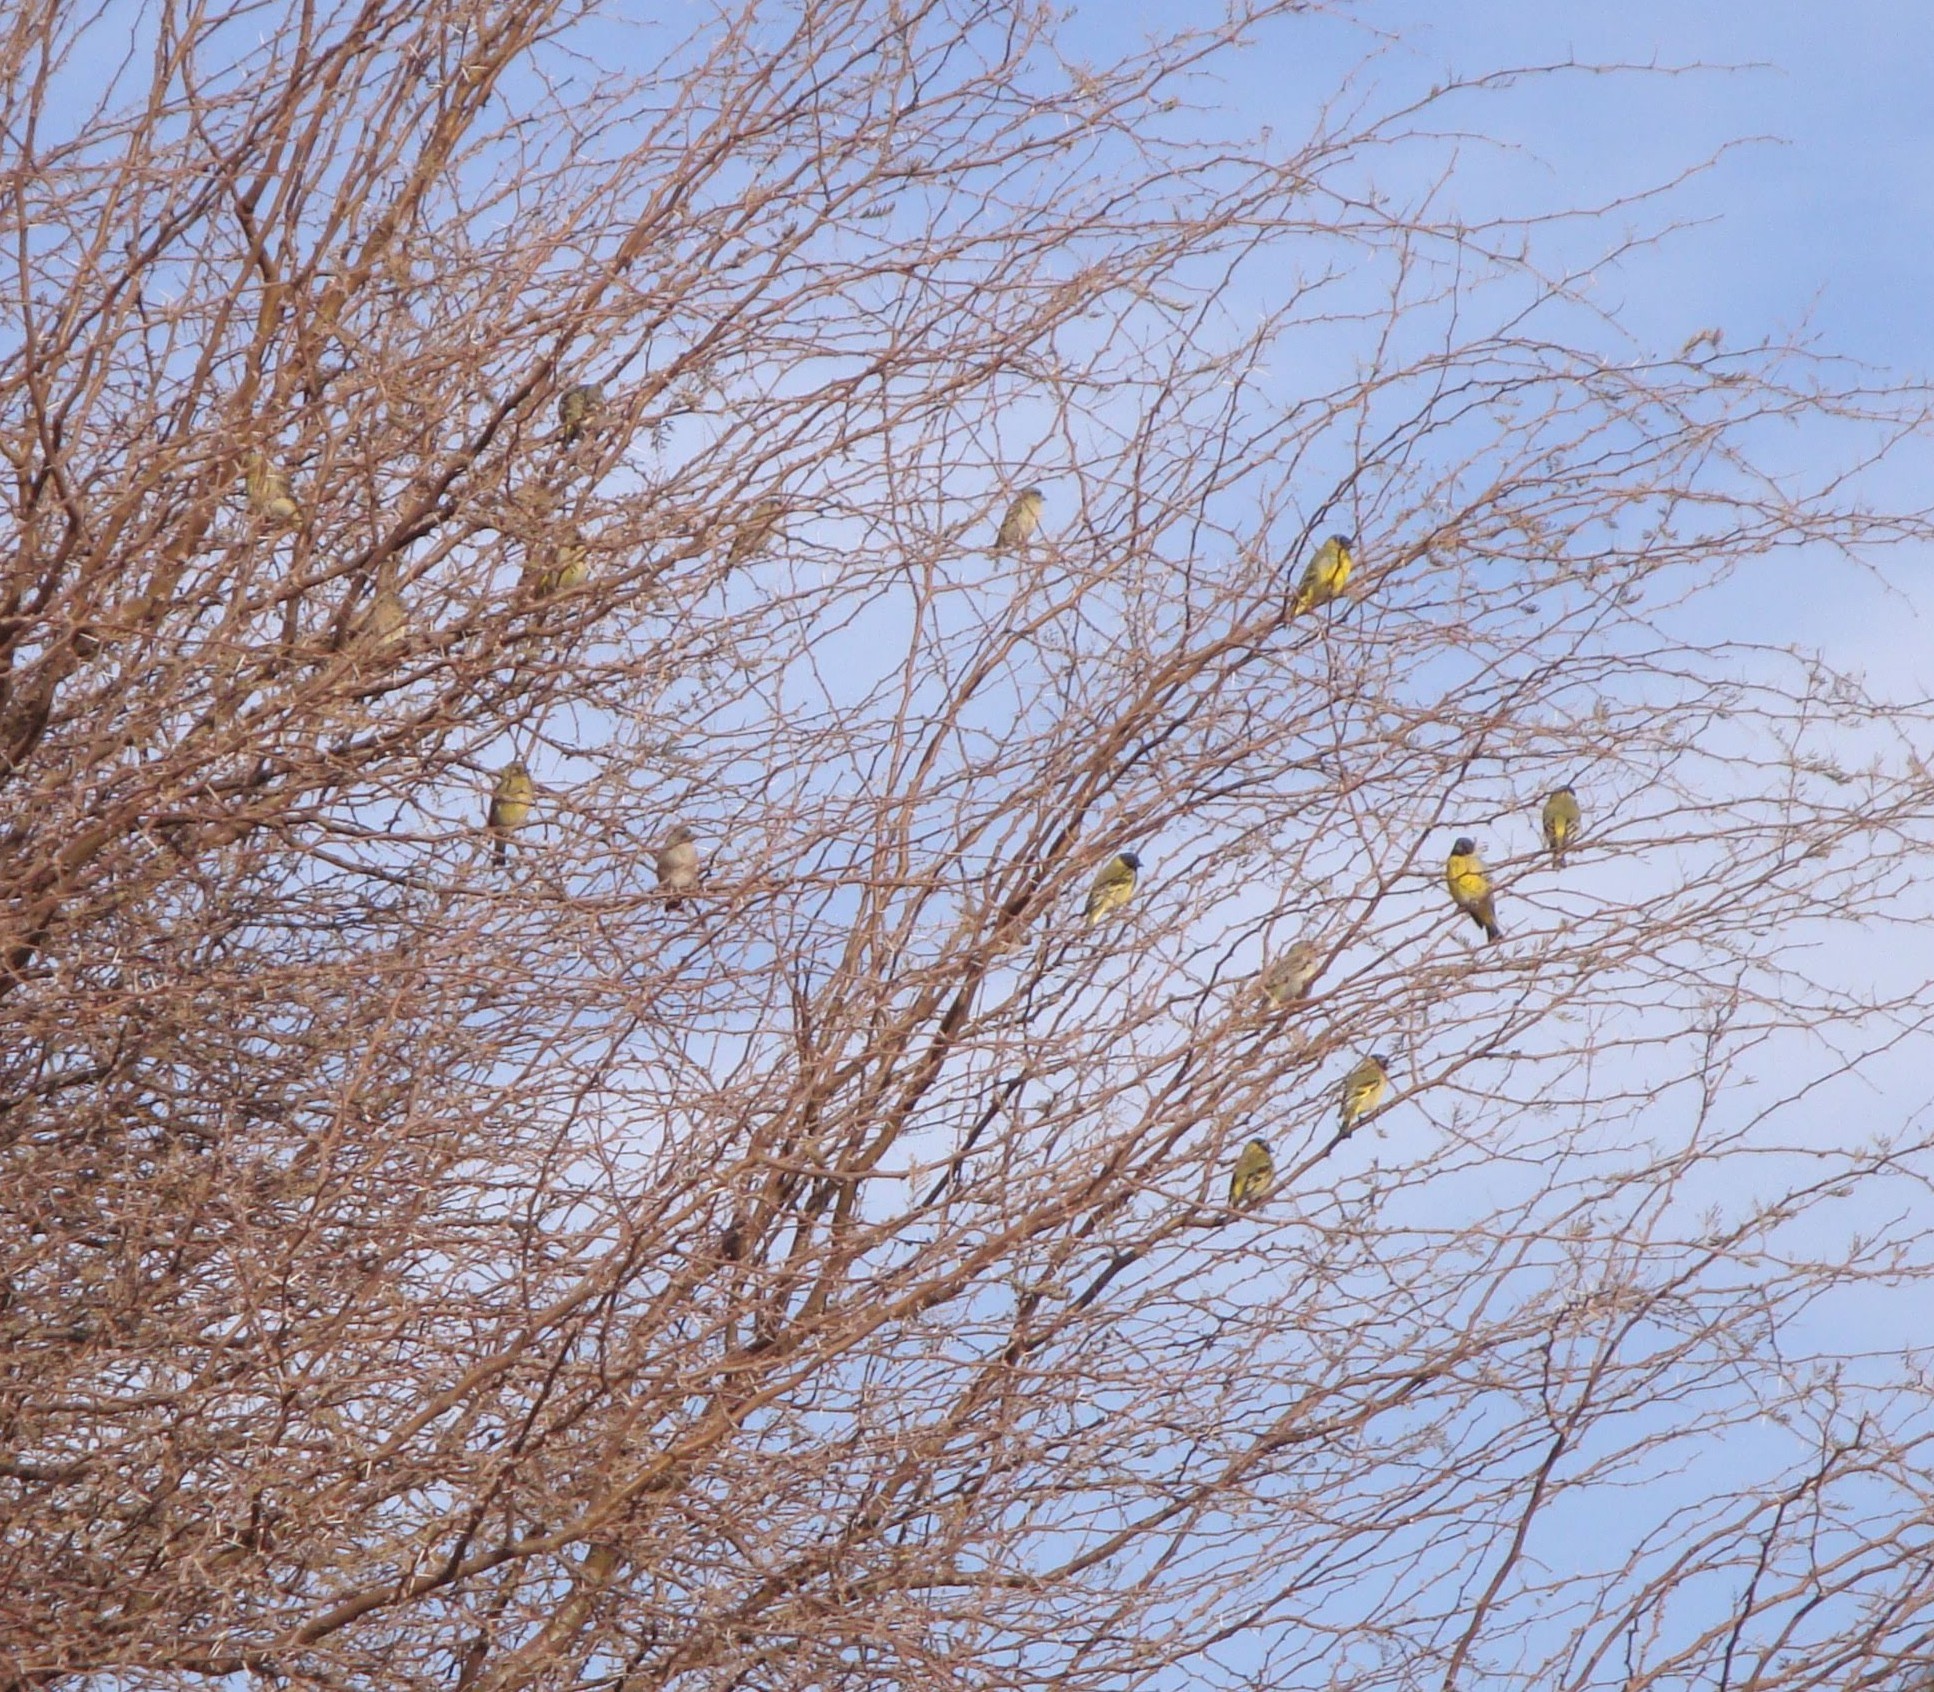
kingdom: Animalia
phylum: Chordata
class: Aves
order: Passeriformes
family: Fringillidae
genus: Spinus
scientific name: Spinus magellanicus
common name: Hooded siskin
